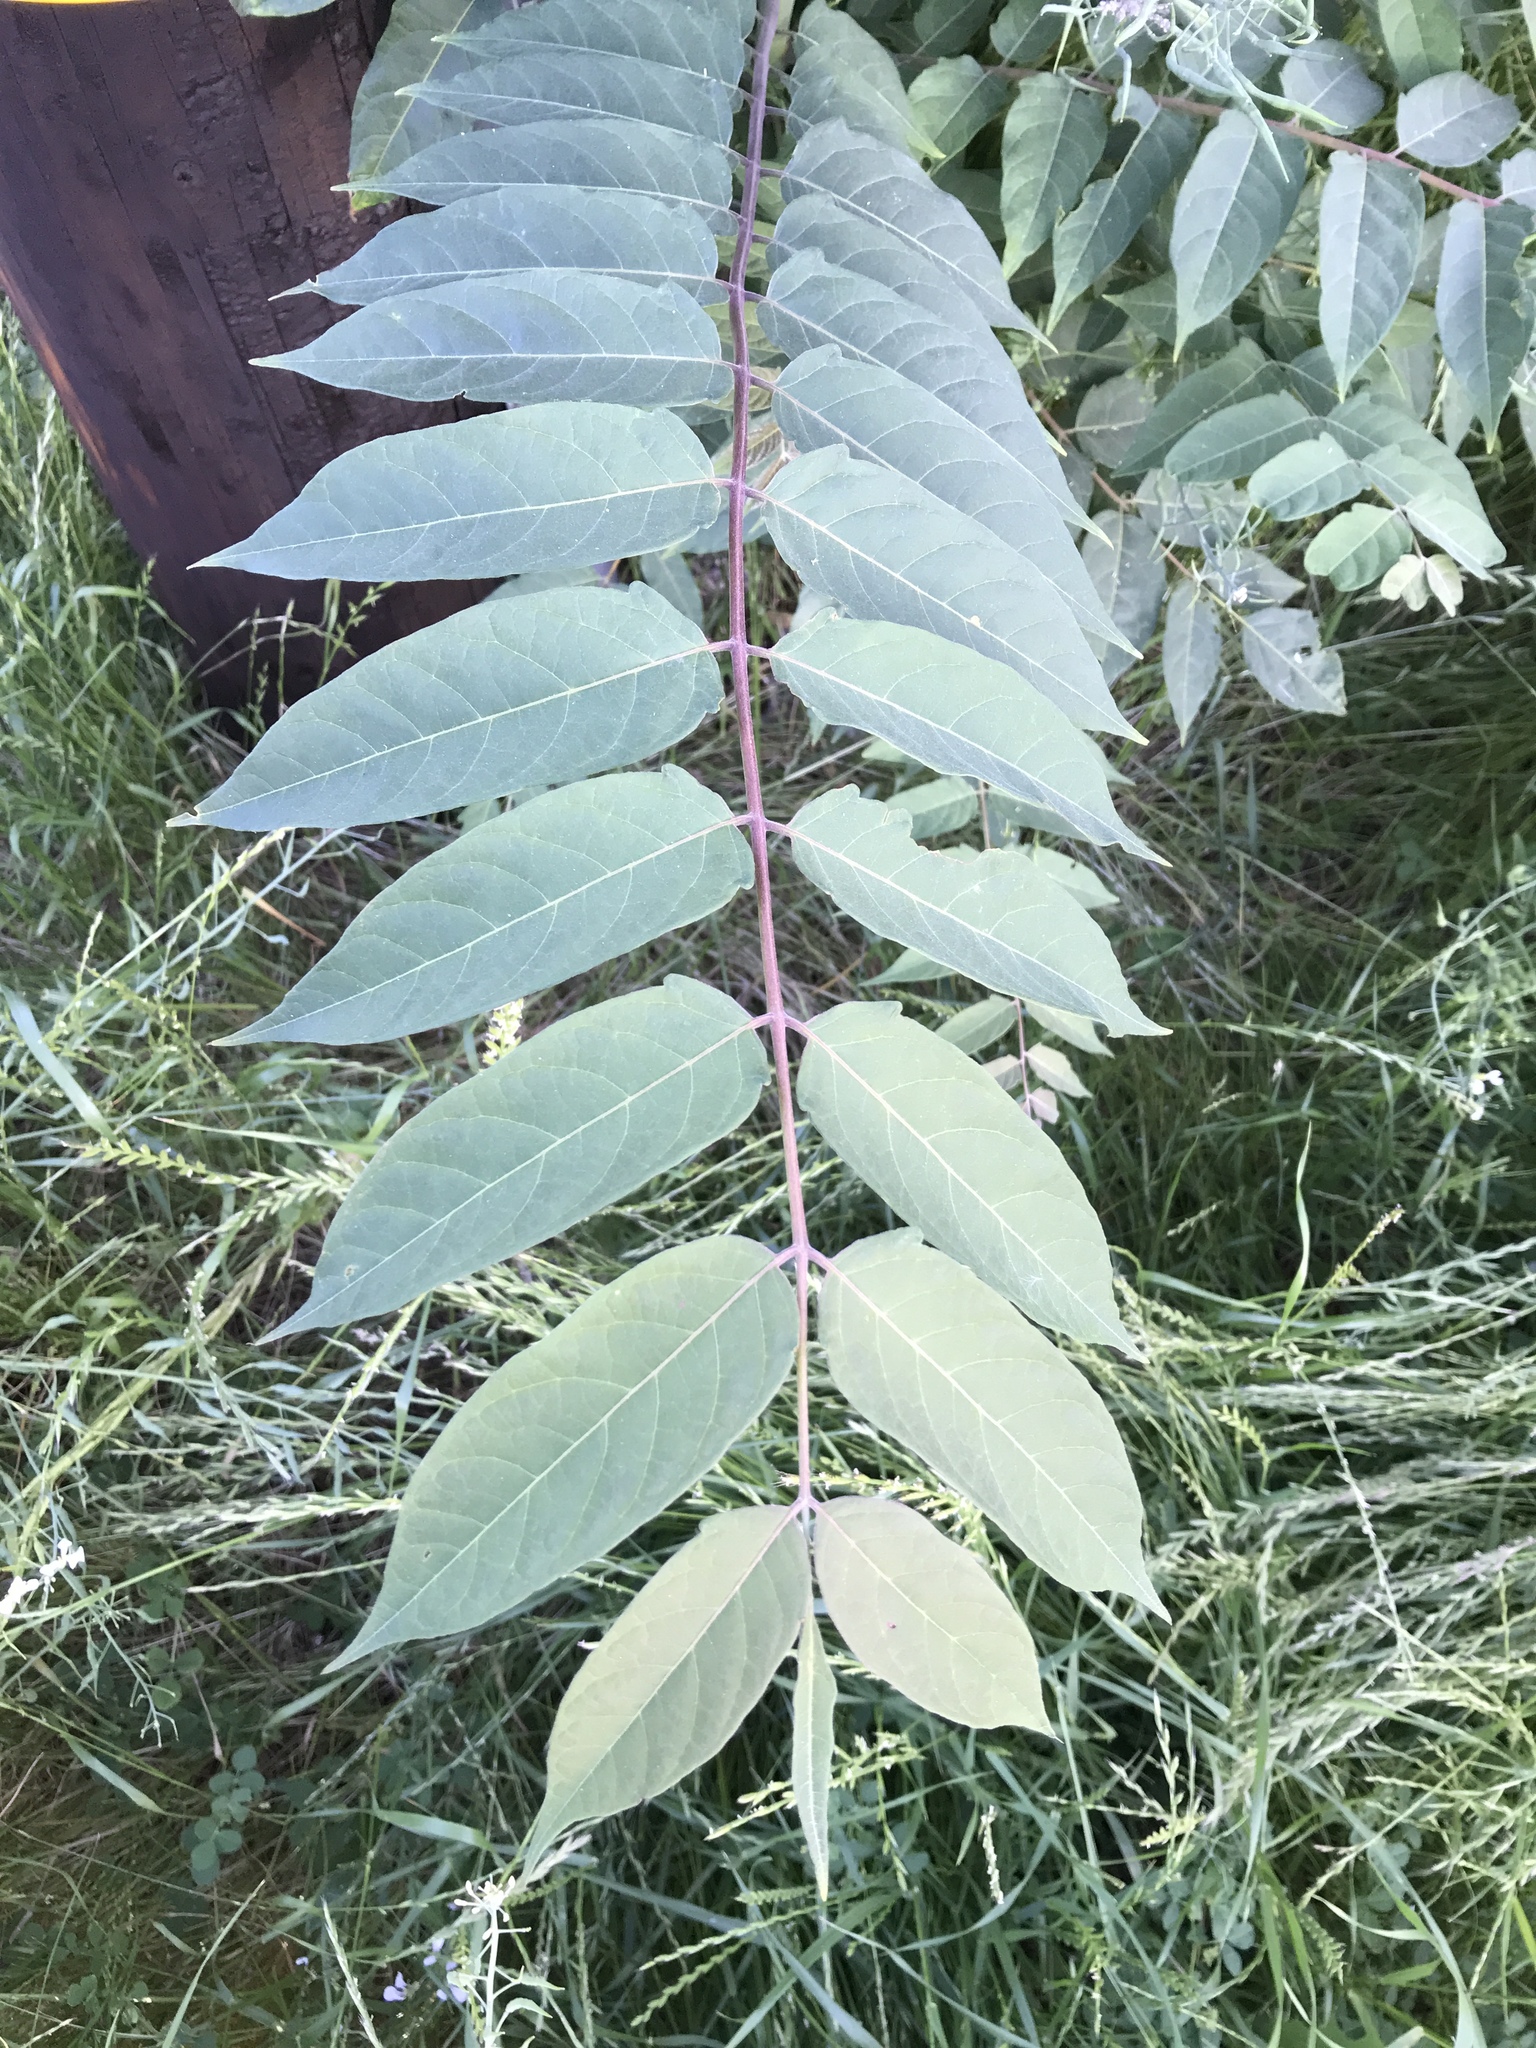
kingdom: Plantae
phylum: Tracheophyta
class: Magnoliopsida
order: Sapindales
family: Simaroubaceae
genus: Ailanthus
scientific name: Ailanthus altissima
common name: Tree-of-heaven
